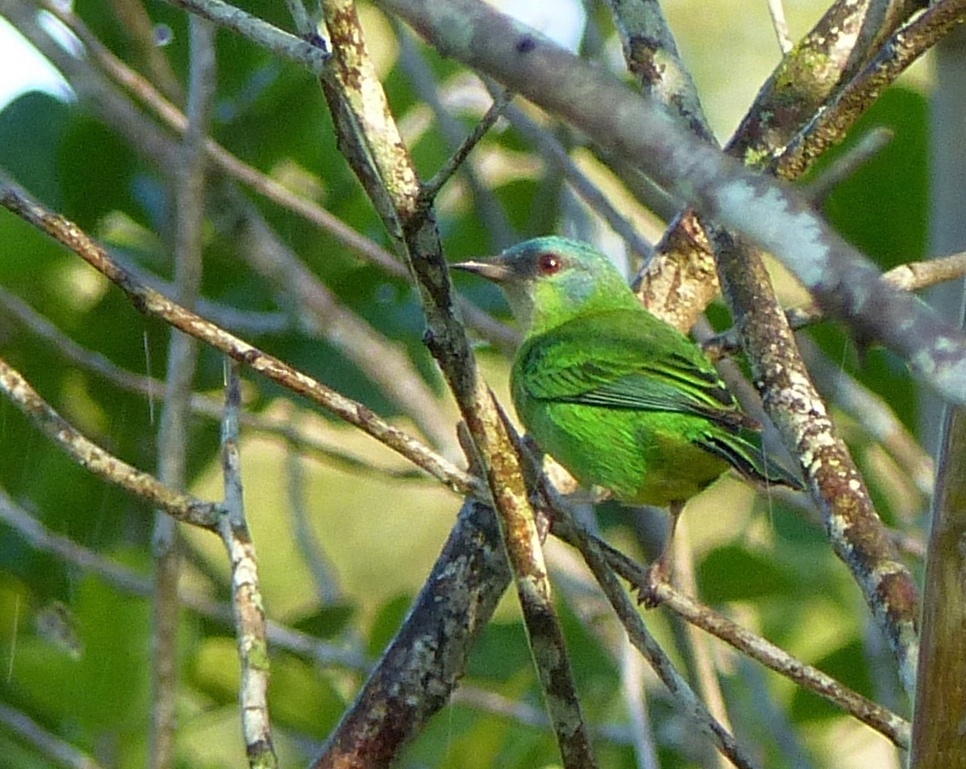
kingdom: Animalia
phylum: Chordata
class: Aves
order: Passeriformes
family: Thraupidae
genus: Dacnis
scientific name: Dacnis cayana
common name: Blue dacnis
